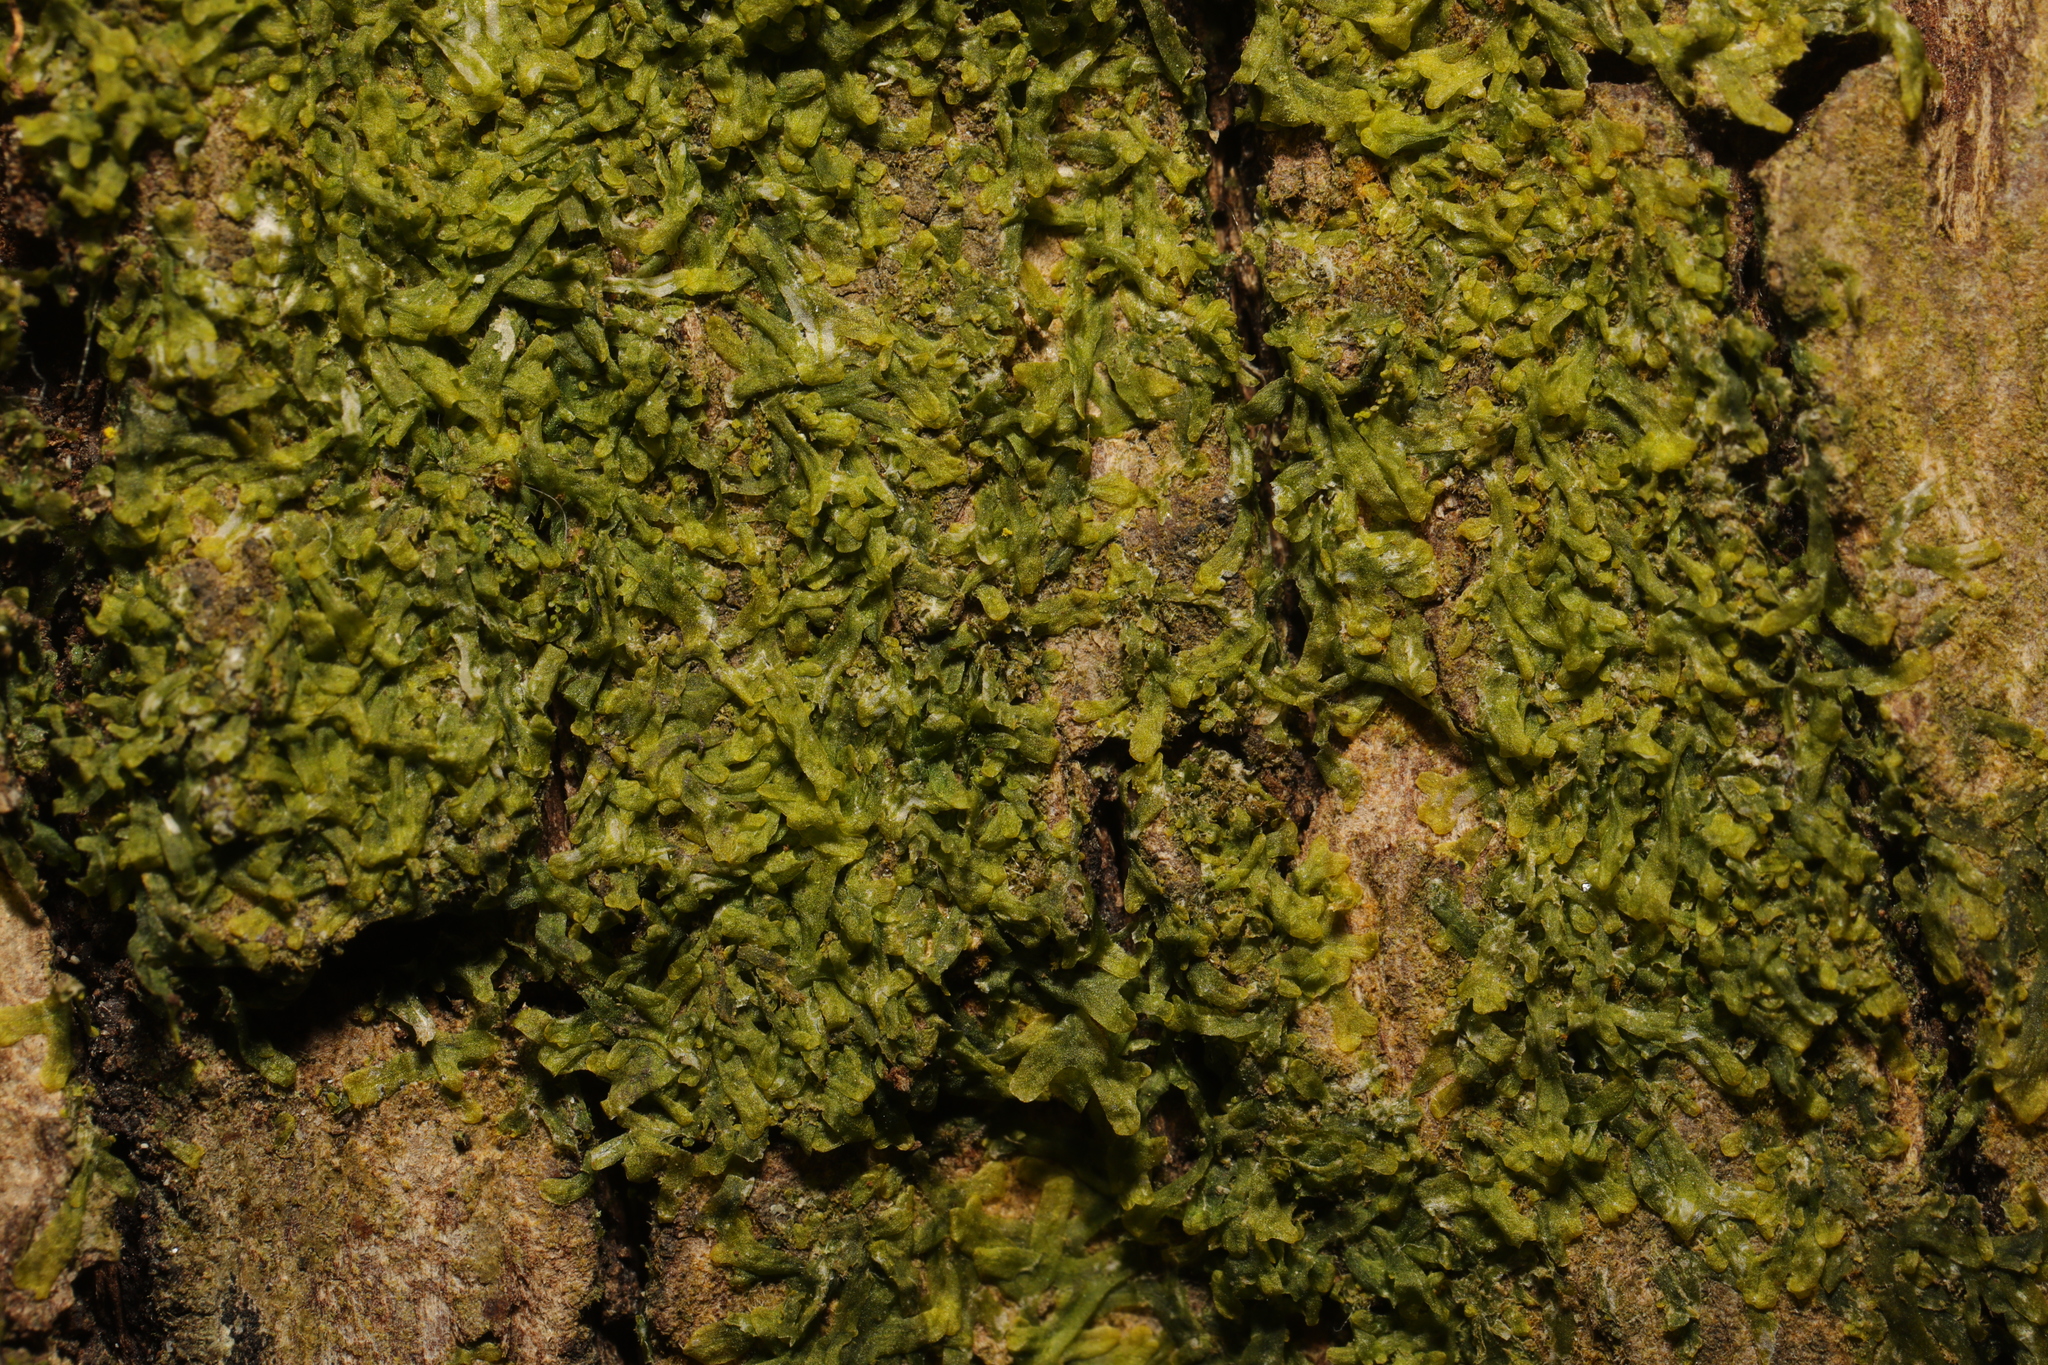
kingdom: Plantae
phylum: Marchantiophyta
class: Jungermanniopsida
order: Metzgeriales
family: Metzgeriaceae
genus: Metzgeria
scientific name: Metzgeria furcata
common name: Forked veilwort
